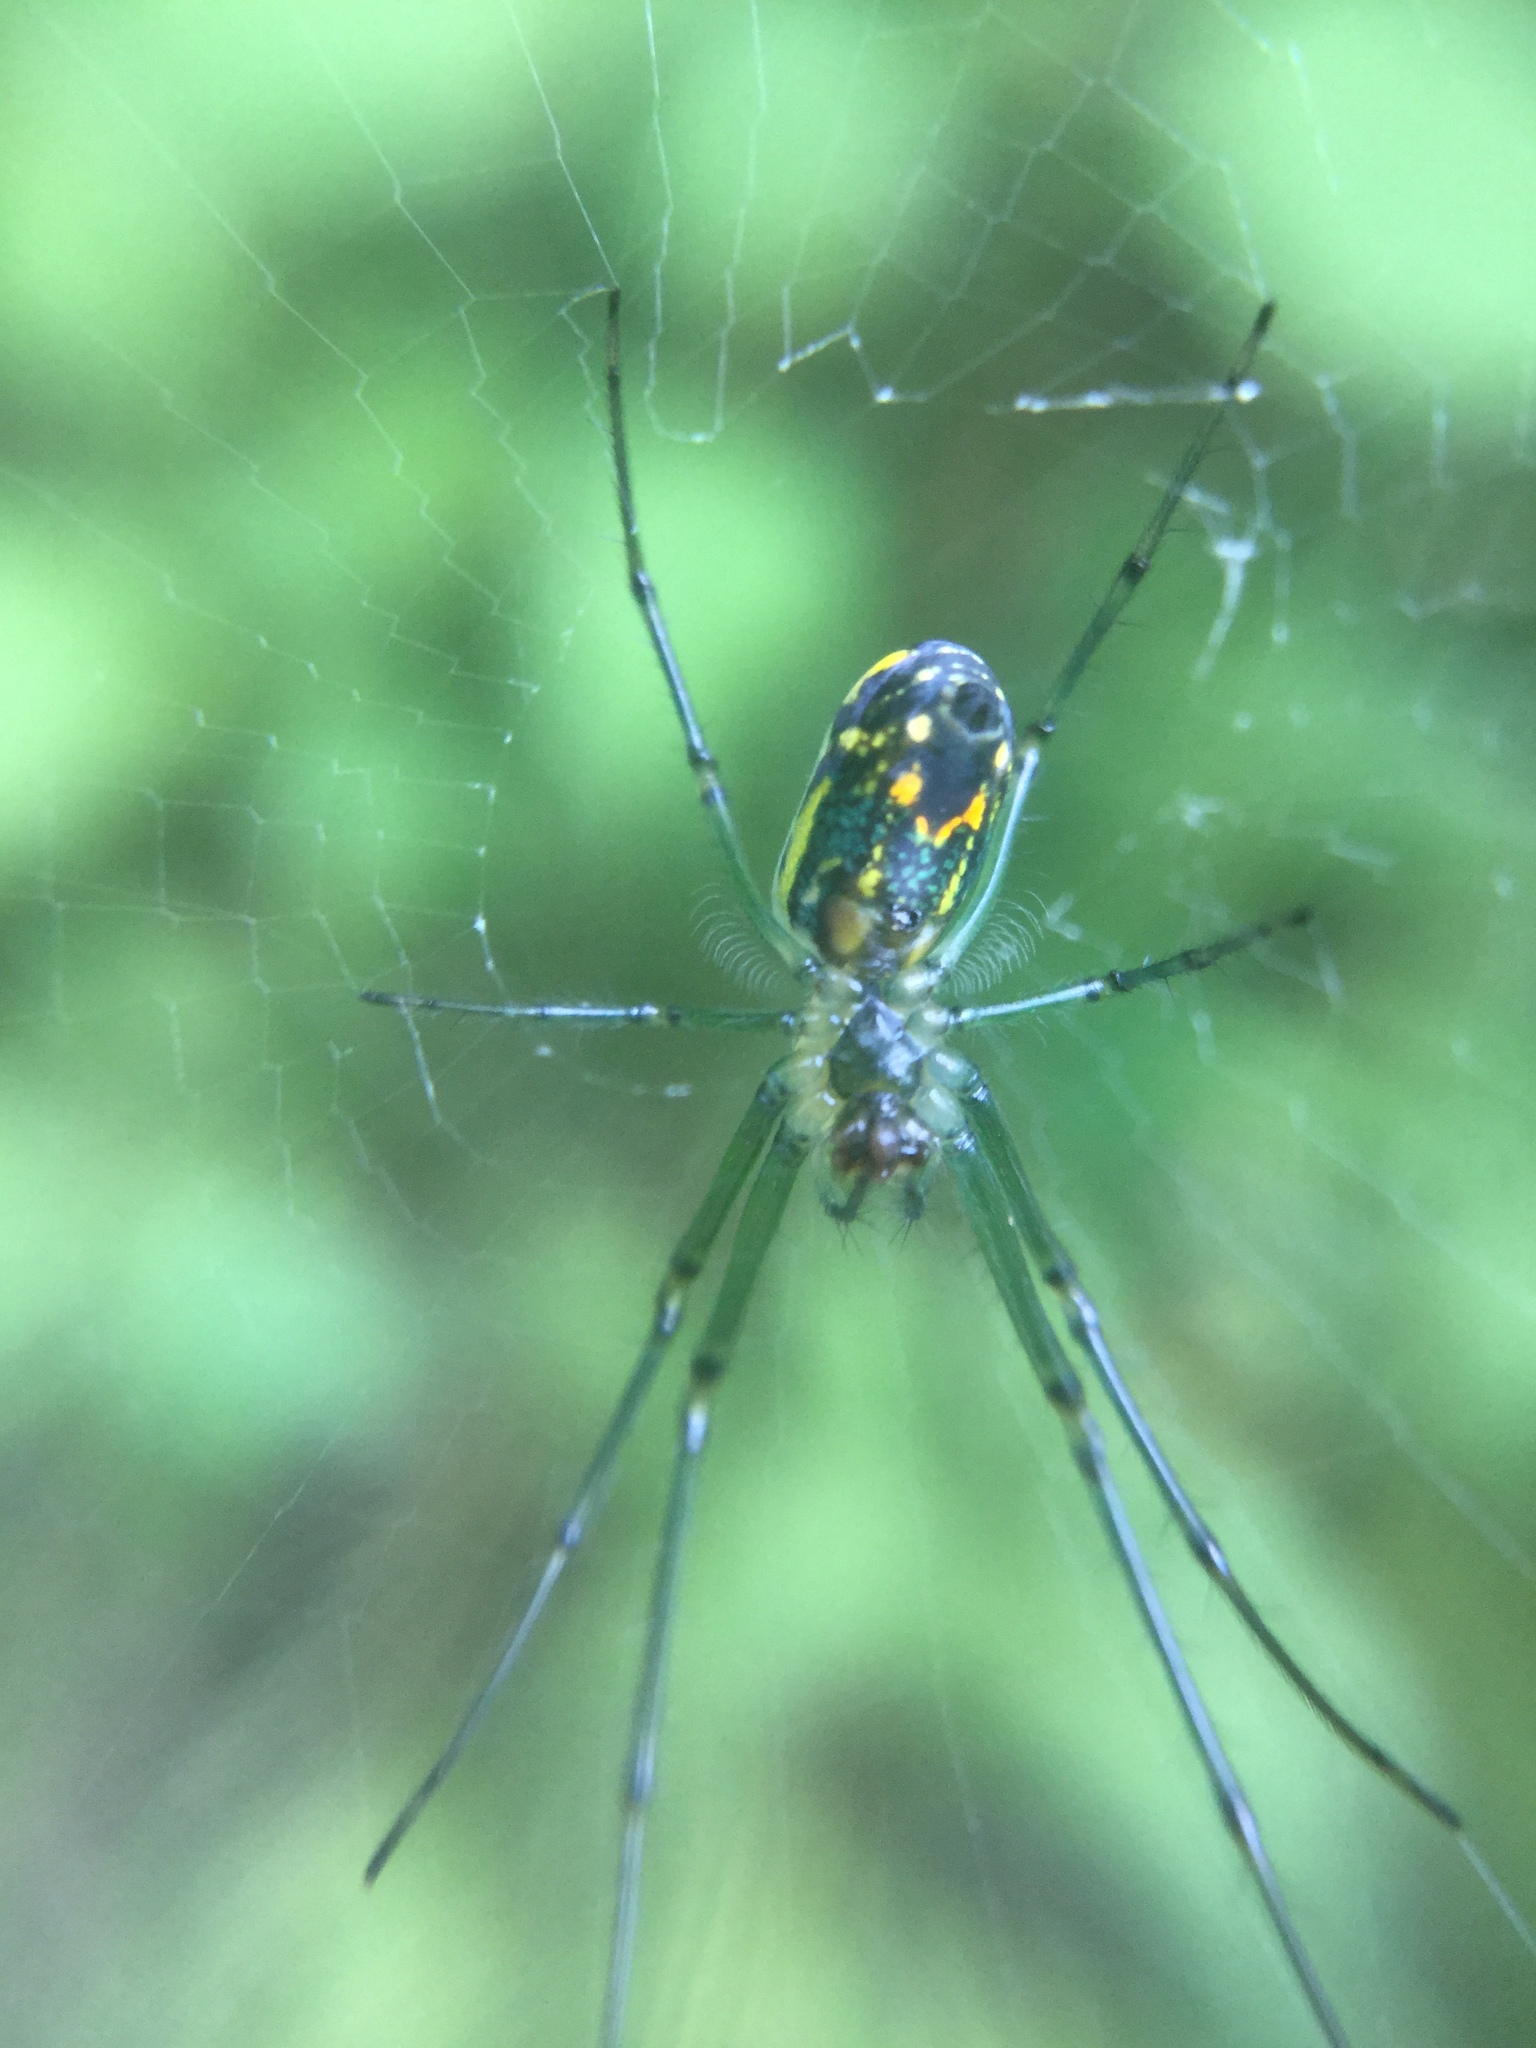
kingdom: Animalia
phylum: Arthropoda
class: Arachnida
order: Araneae
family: Tetragnathidae
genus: Leucauge
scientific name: Leucauge venusta
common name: Longjawed orb weavers
